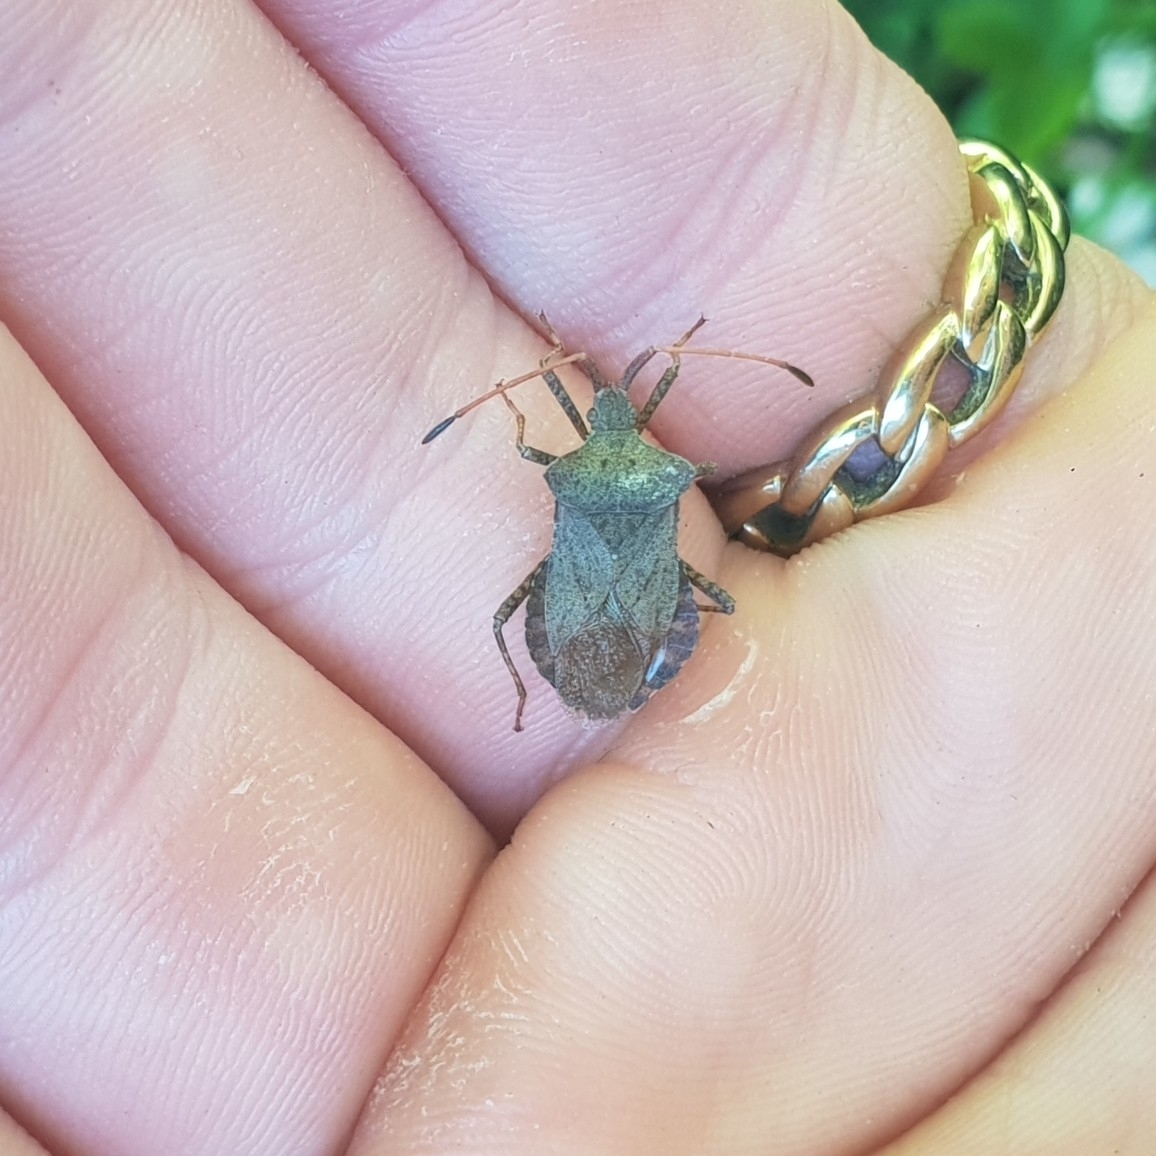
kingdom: Animalia
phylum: Arthropoda
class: Insecta
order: Hemiptera
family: Coreidae
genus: Coreus
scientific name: Coreus marginatus
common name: Dock bug
